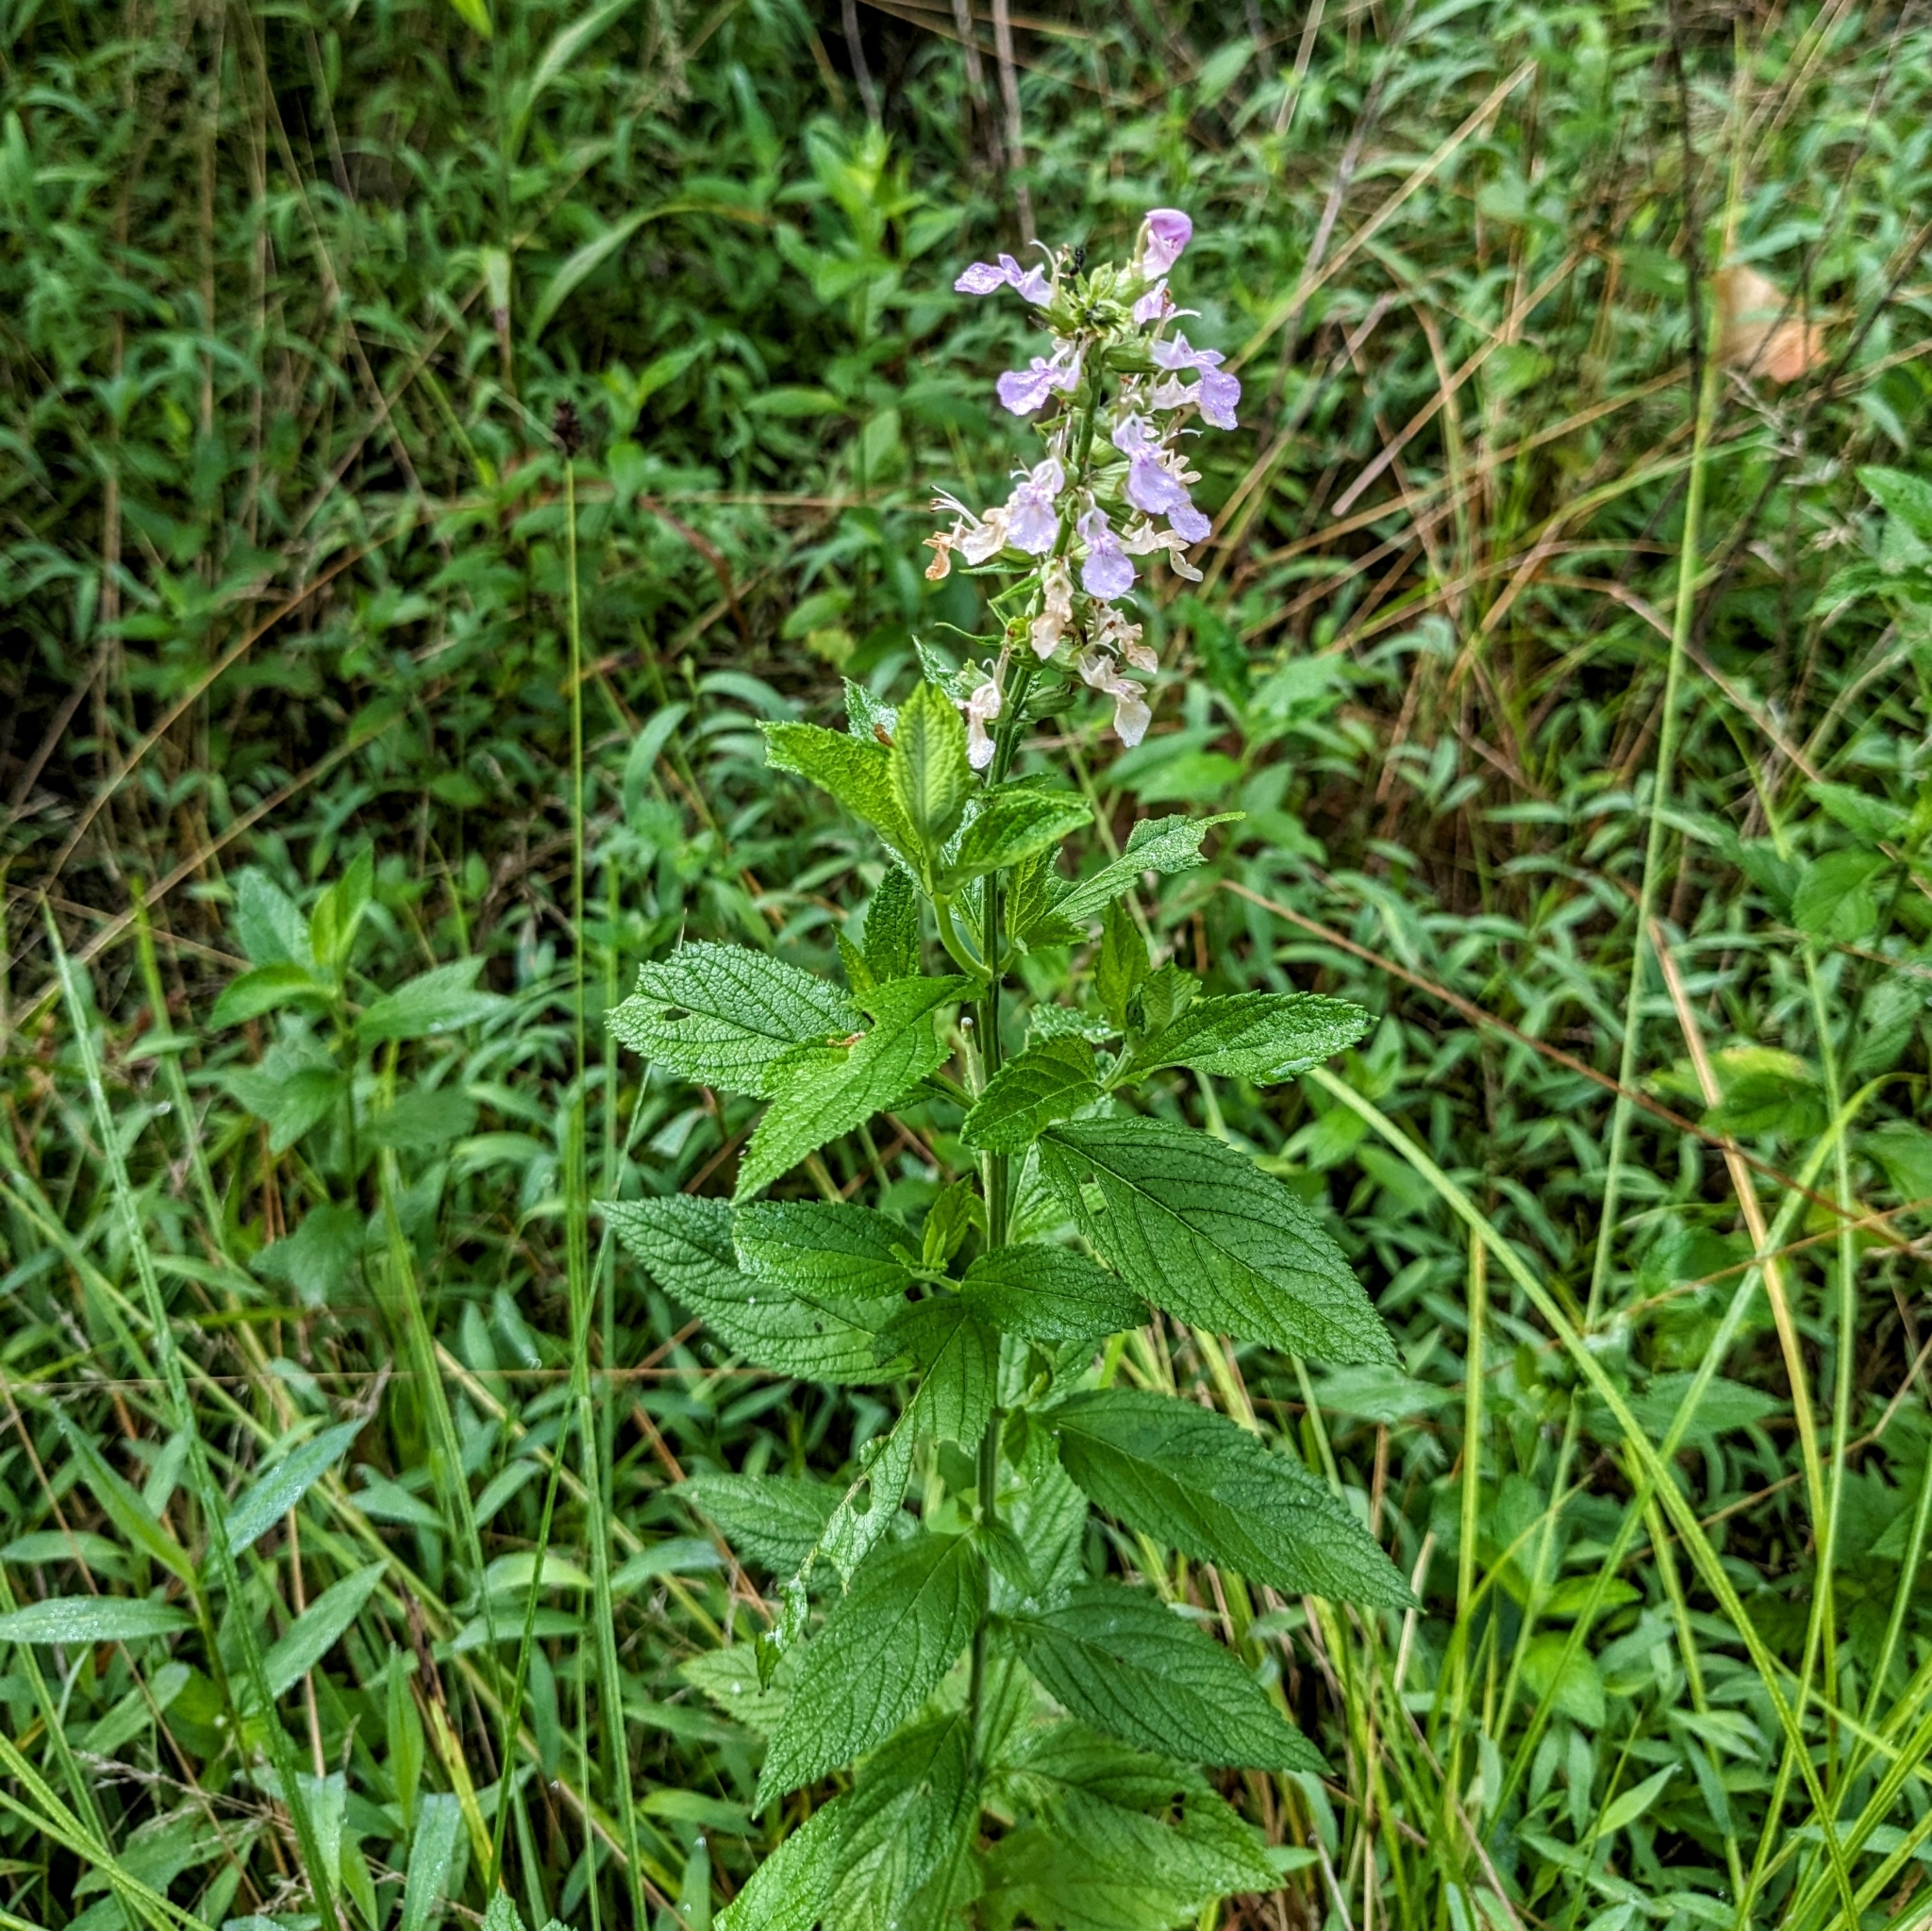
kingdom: Plantae
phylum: Tracheophyta
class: Magnoliopsida
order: Lamiales
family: Lamiaceae
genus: Teucrium
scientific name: Teucrium canadense
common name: American germander
